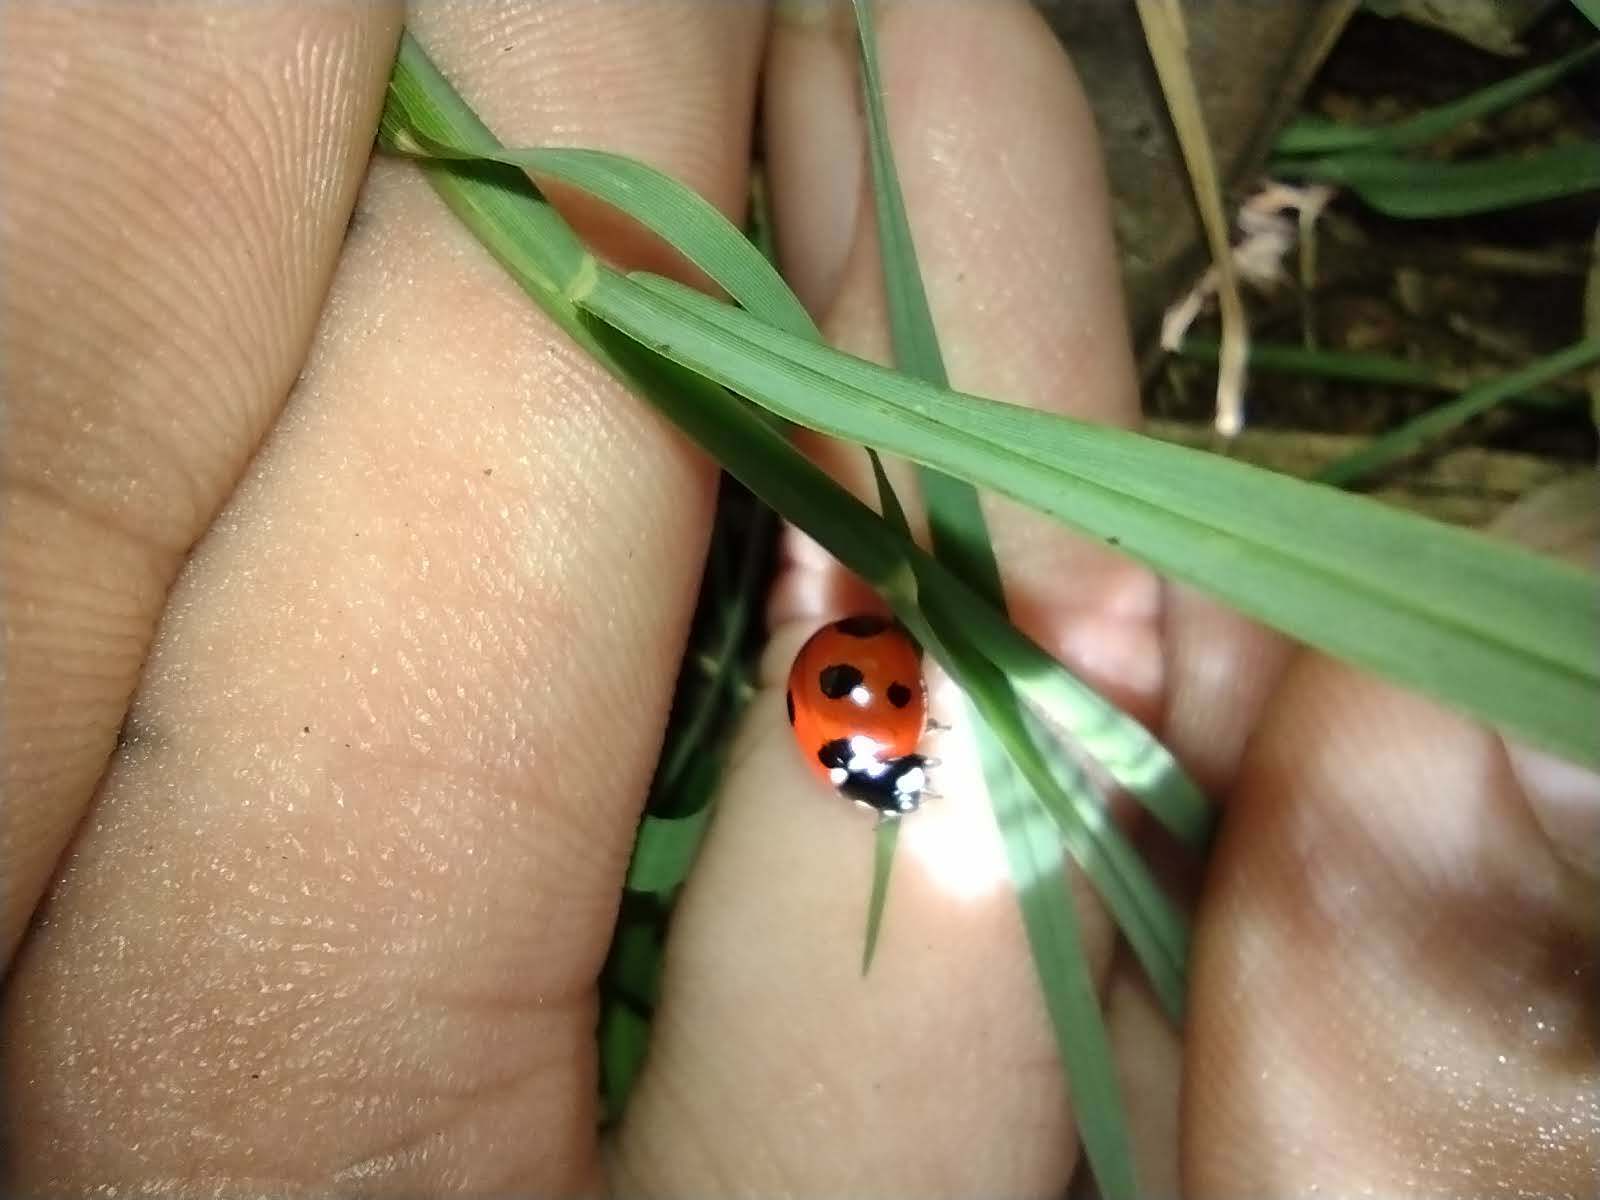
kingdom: Animalia
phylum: Arthropoda
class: Insecta
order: Coleoptera
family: Coccinellidae
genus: Coccinella
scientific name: Coccinella septempunctata
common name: Sevenspotted lady beetle
